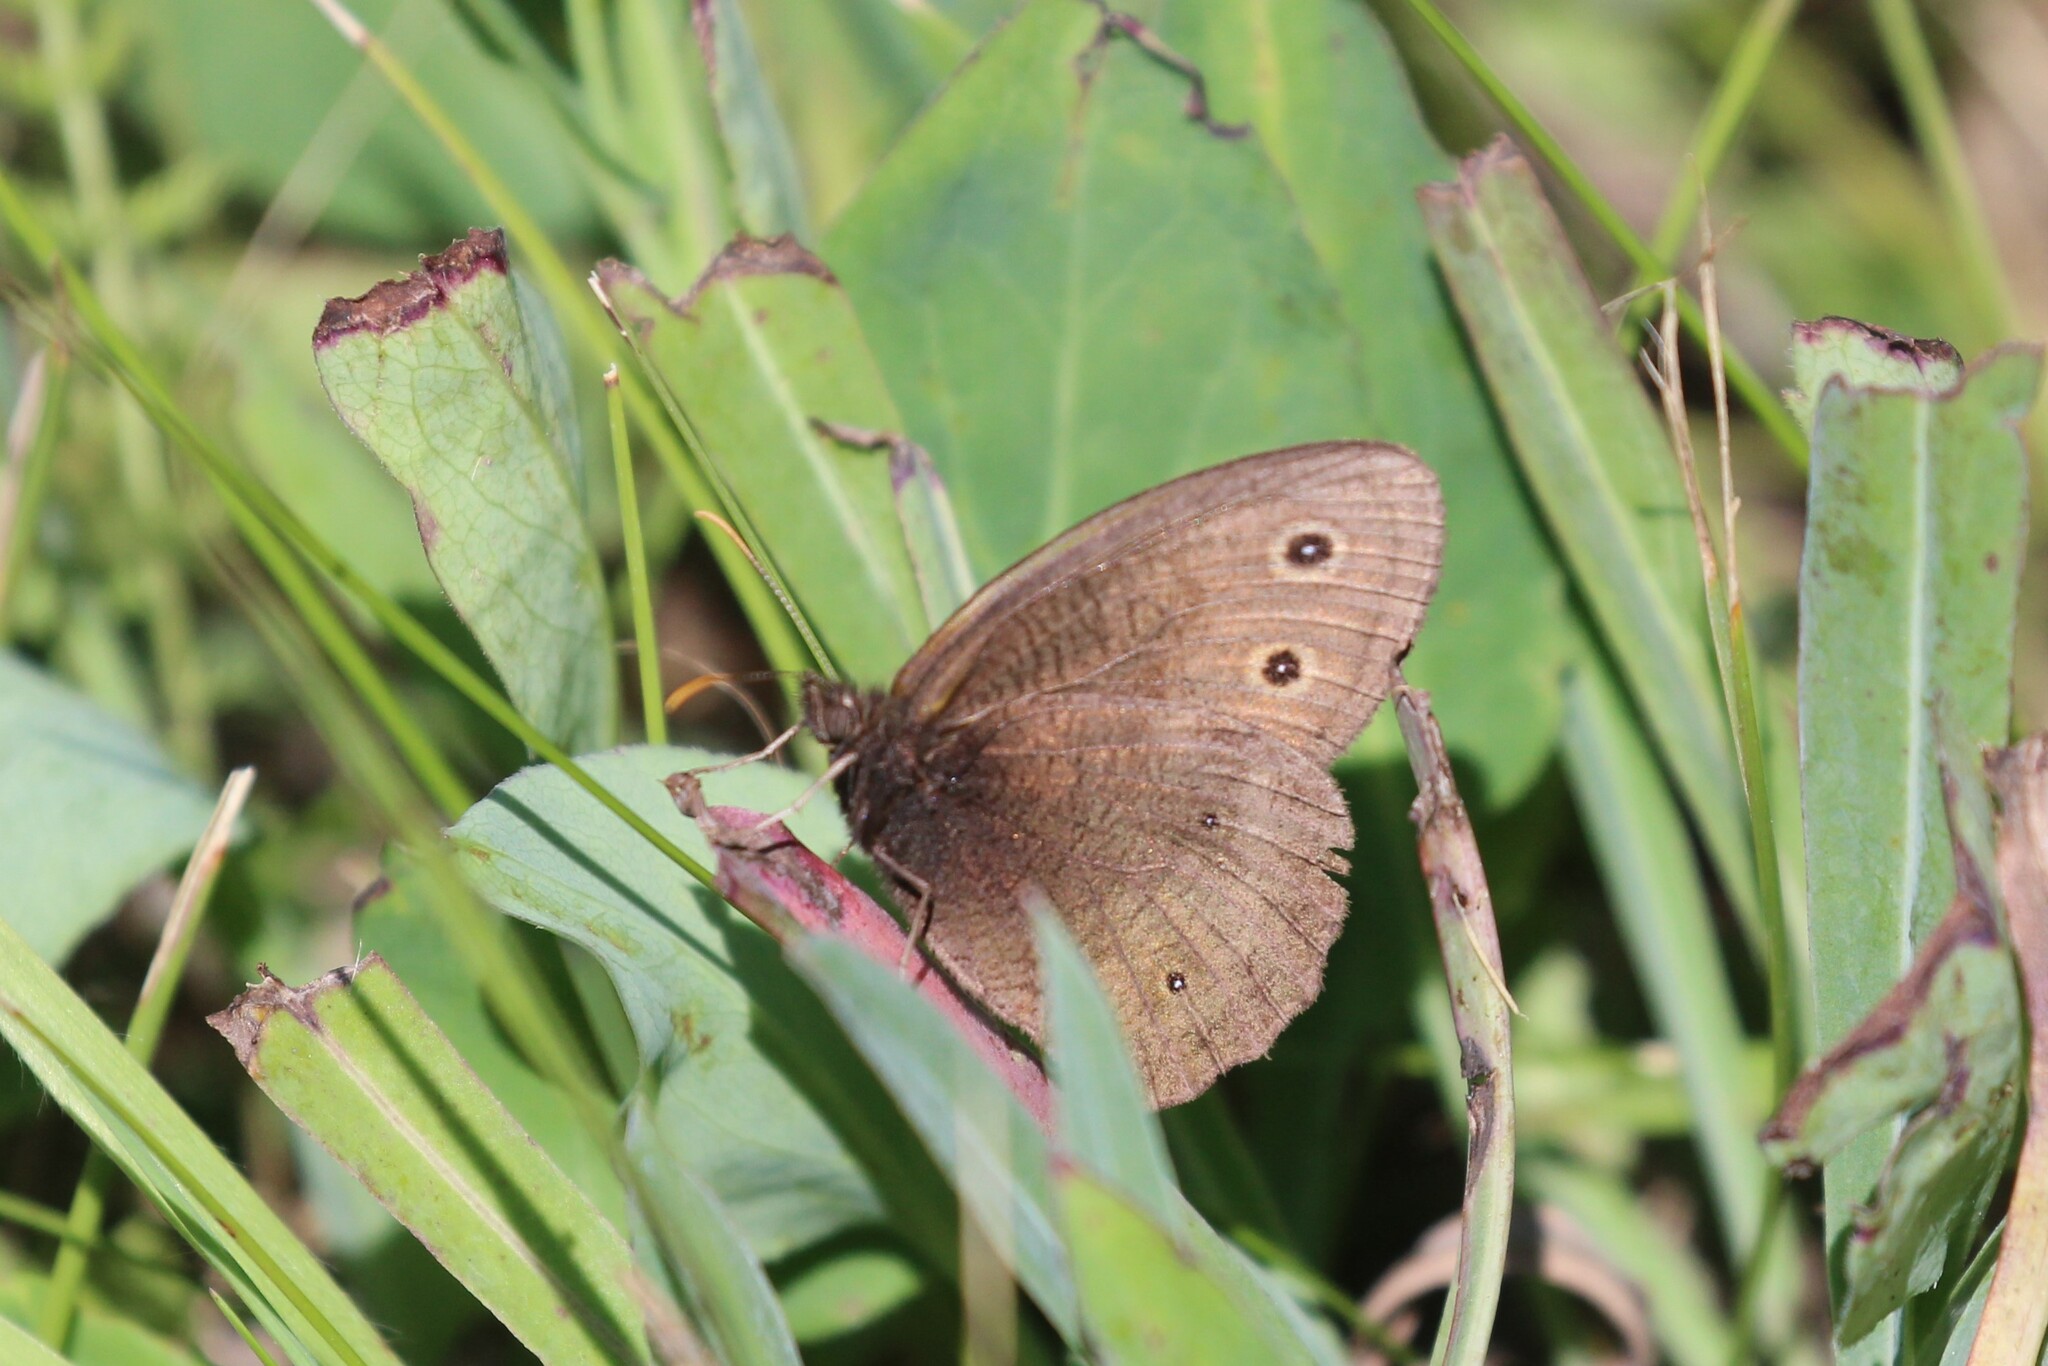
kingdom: Animalia
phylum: Arthropoda
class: Insecta
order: Lepidoptera
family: Nymphalidae
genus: Cercyonis
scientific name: Cercyonis pegala
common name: Common wood-nymph
